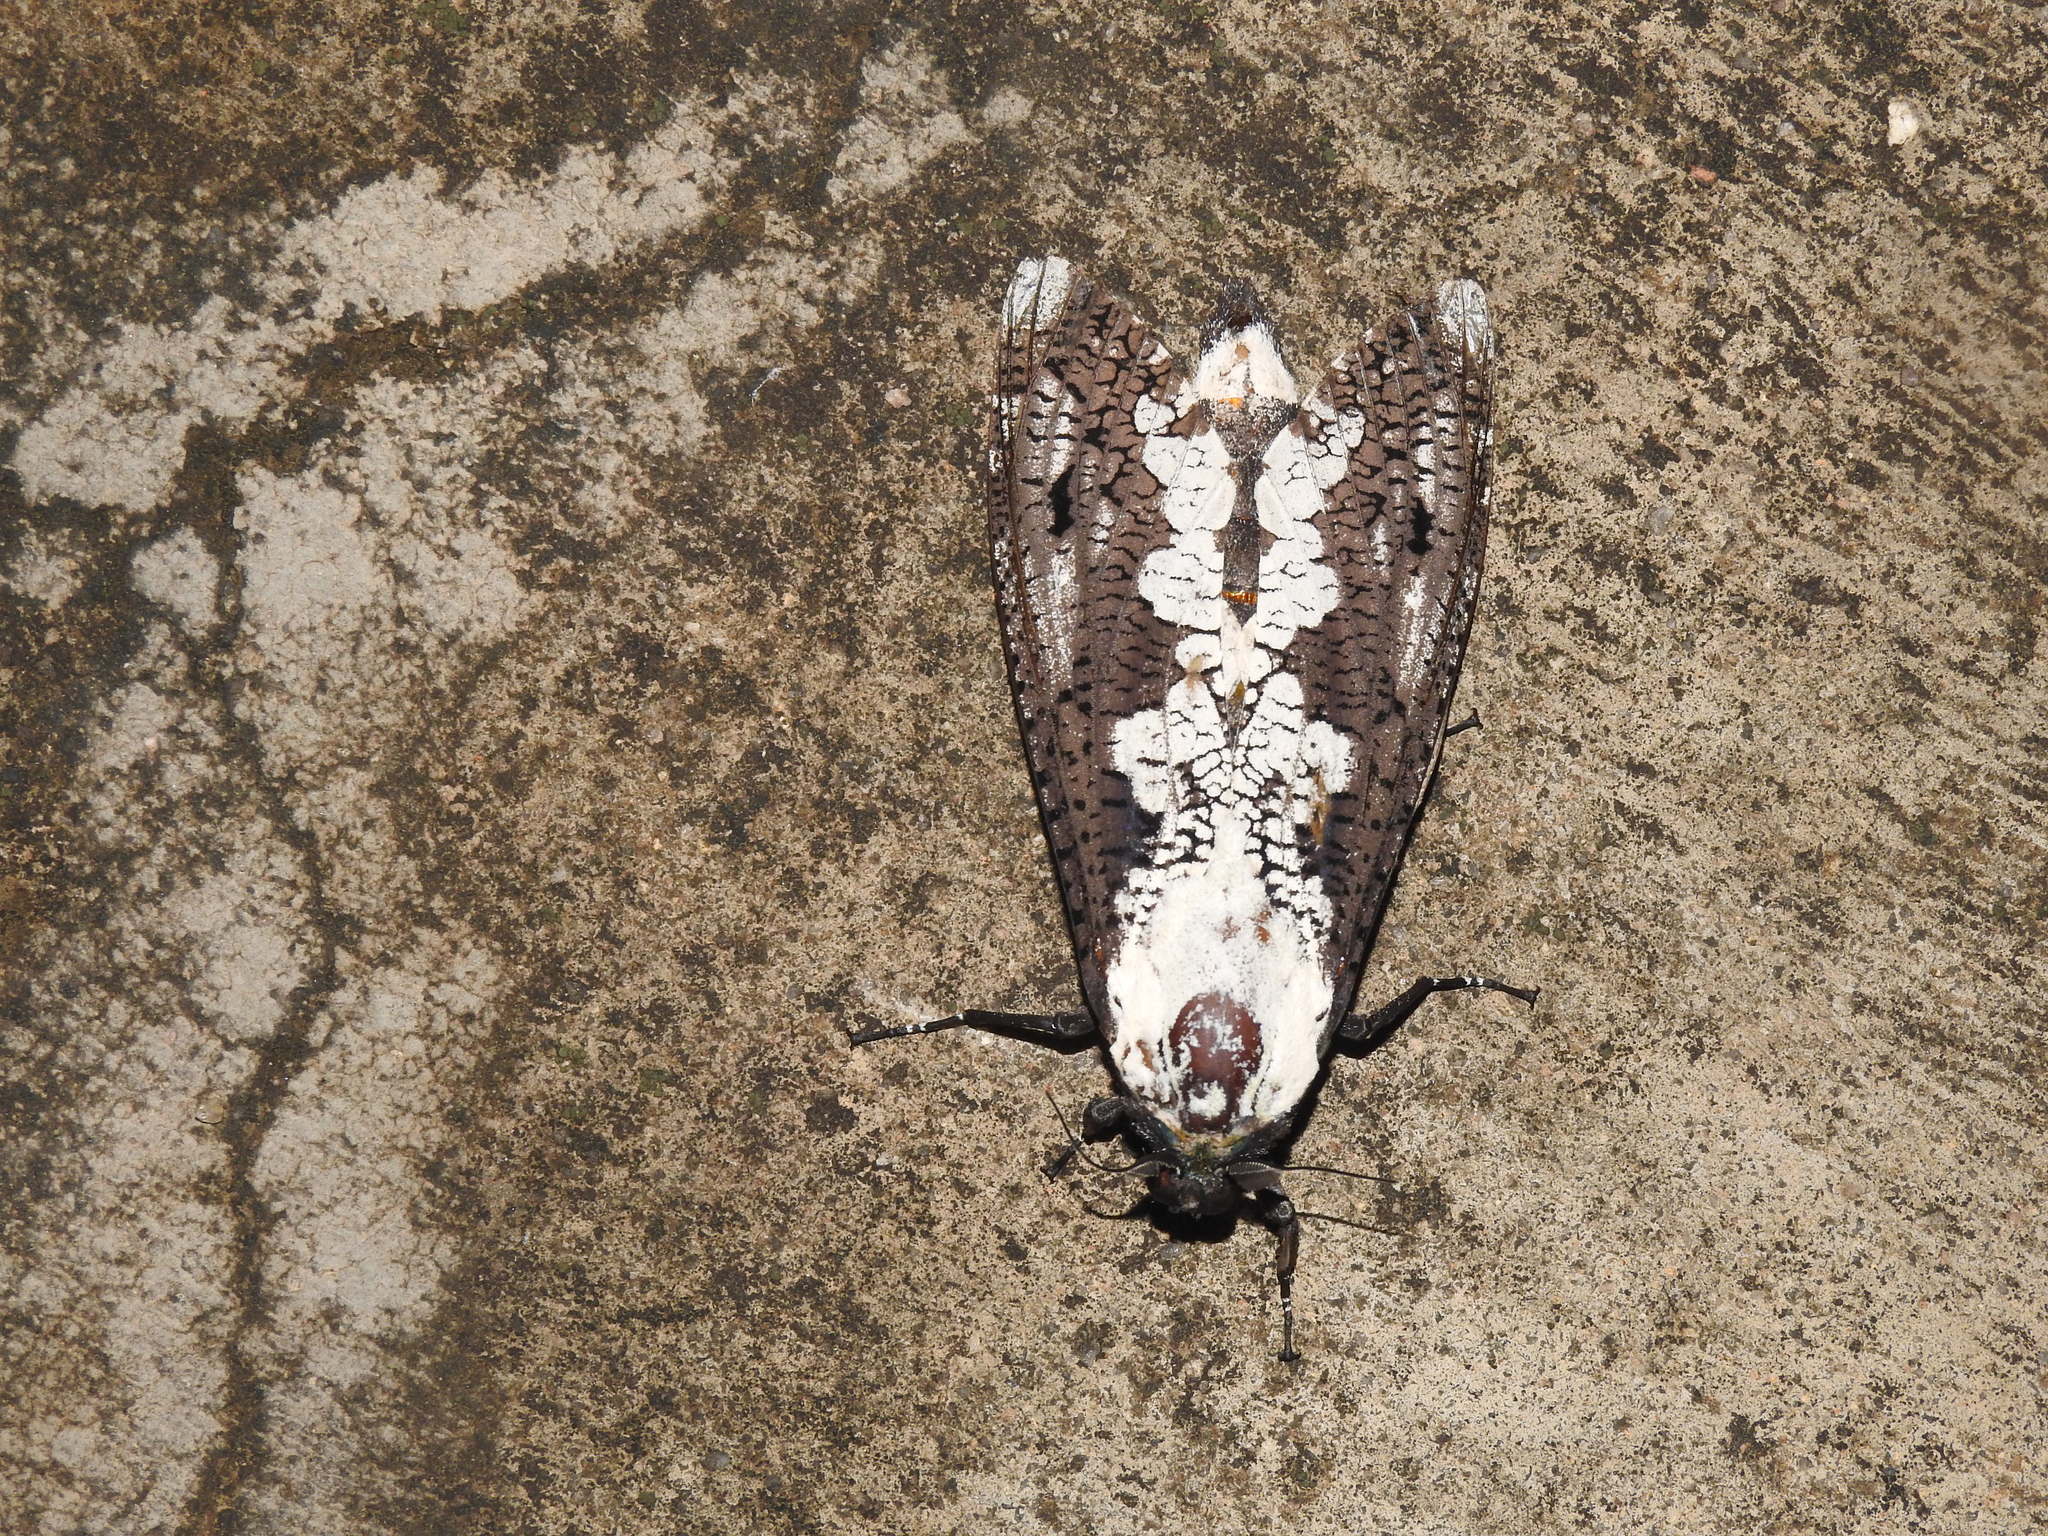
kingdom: Animalia
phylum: Arthropoda
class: Insecta
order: Lepidoptera
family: Cossidae
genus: Xyleutes
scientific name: Xyleutes persona
